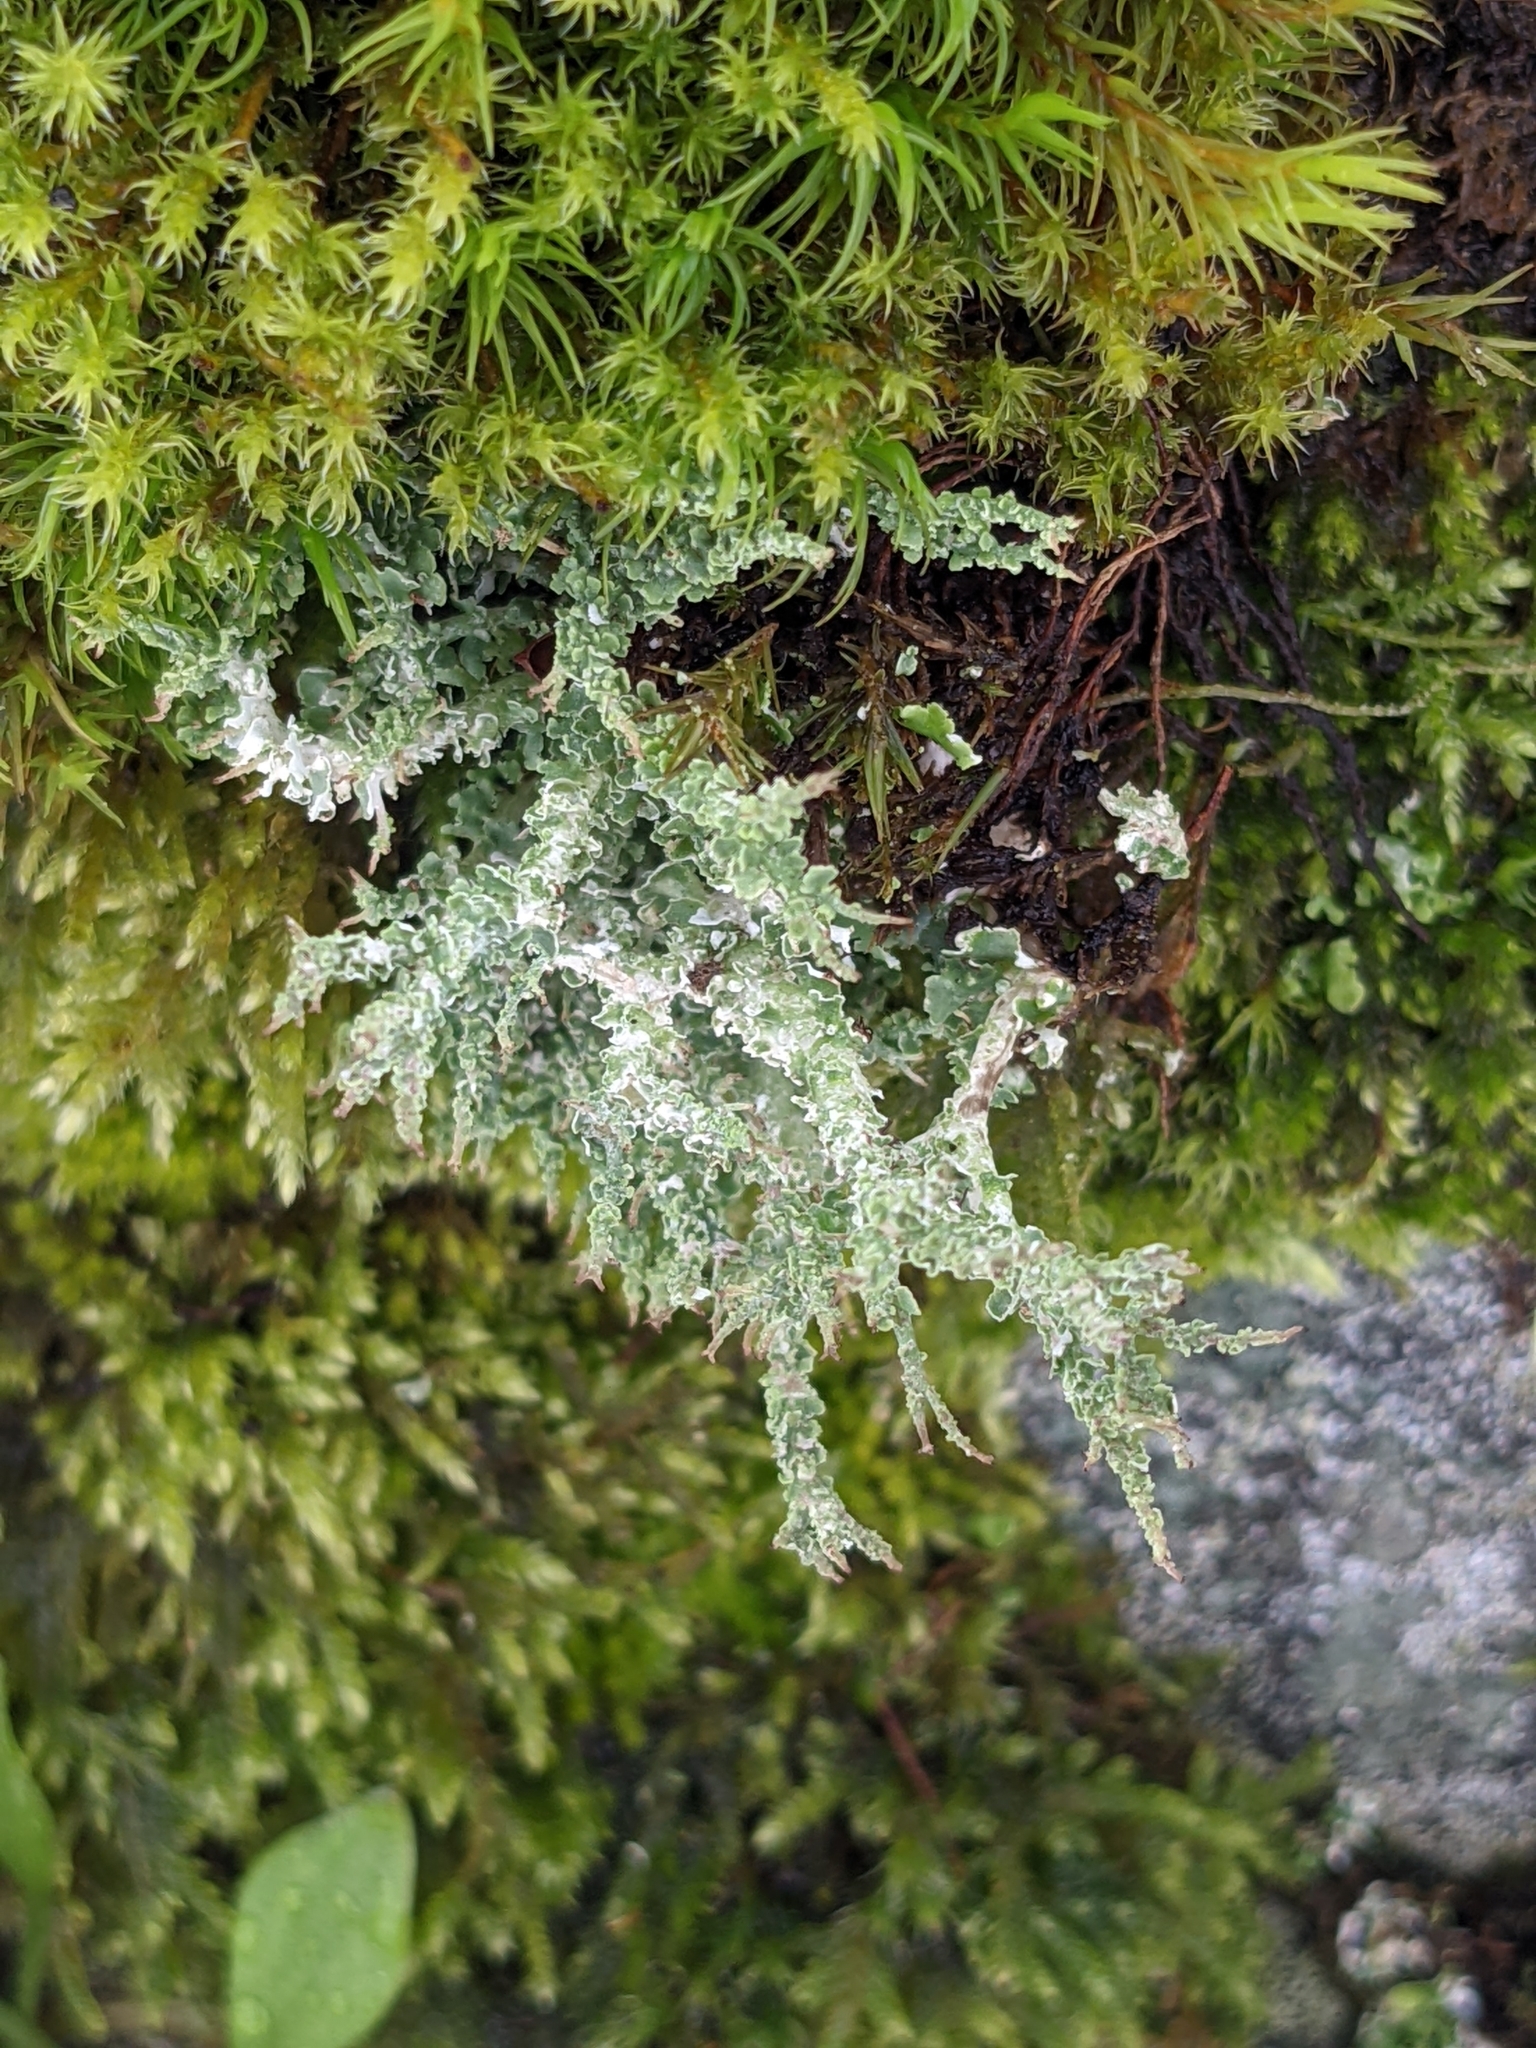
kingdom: Fungi
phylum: Ascomycota
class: Lecanoromycetes
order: Lecanorales
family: Cladoniaceae
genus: Cladonia
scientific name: Cladonia squamosa
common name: Dragon horn
